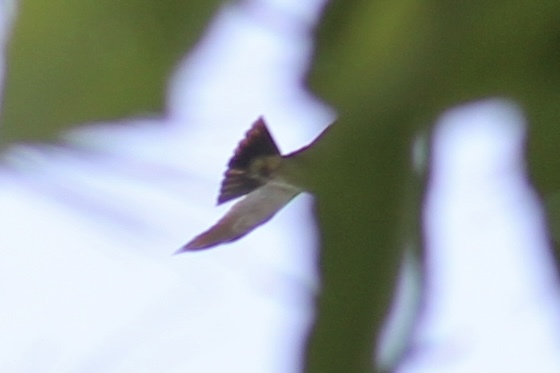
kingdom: Animalia
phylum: Chordata
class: Aves
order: Accipitriformes
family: Accipitridae
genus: Ictinia
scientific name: Ictinia mississippiensis
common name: Mississippi kite
